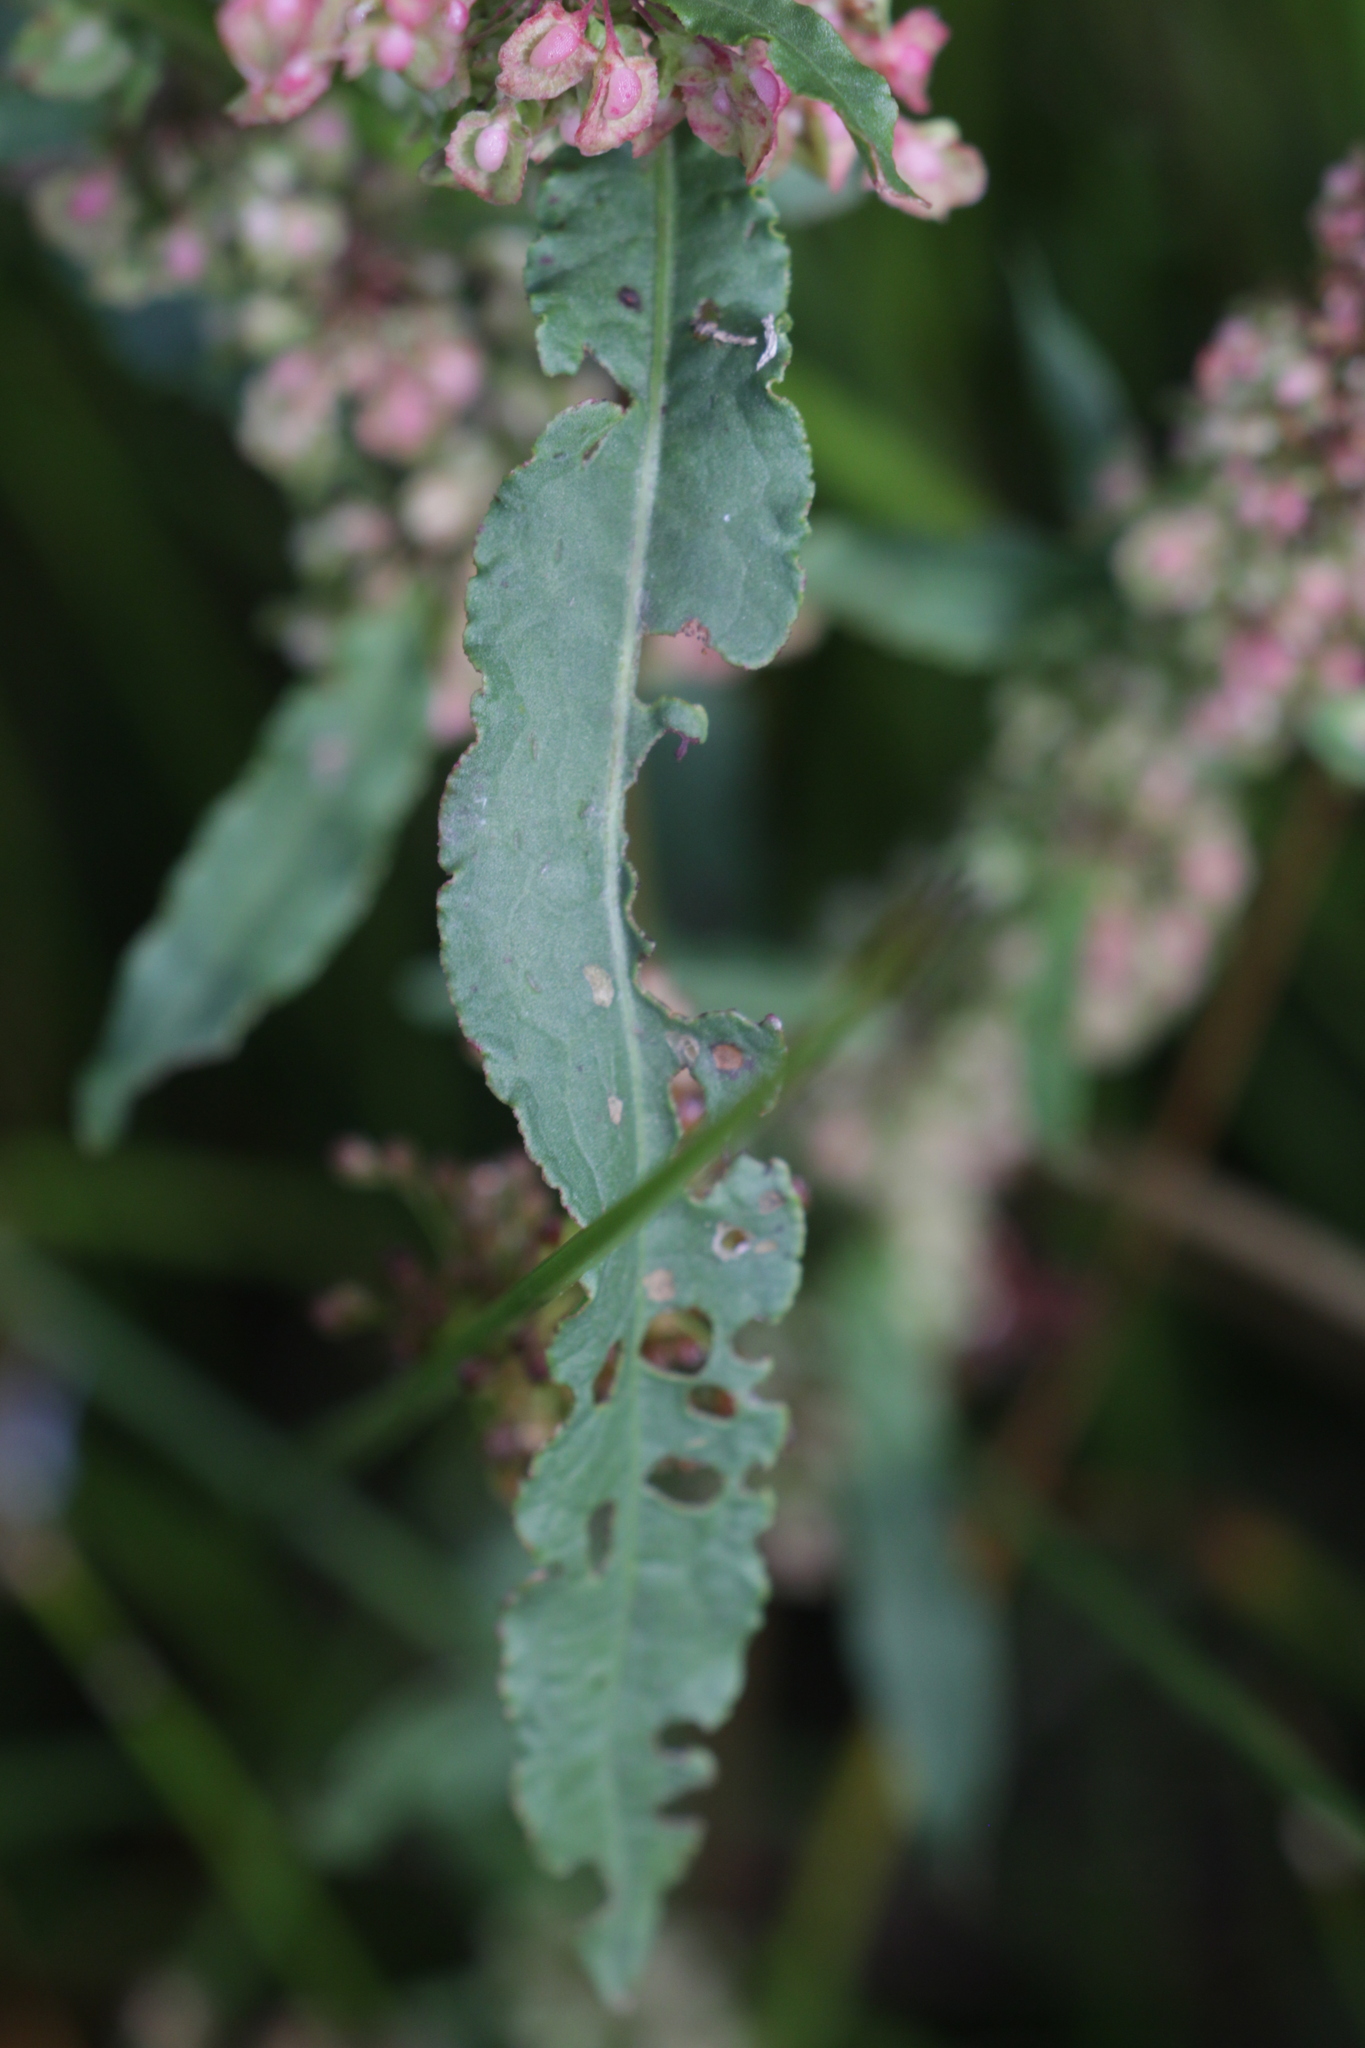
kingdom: Plantae
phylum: Tracheophyta
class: Magnoliopsida
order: Caryophyllales
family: Polygonaceae
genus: Rumex
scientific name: Rumex crispus
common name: Curled dock
